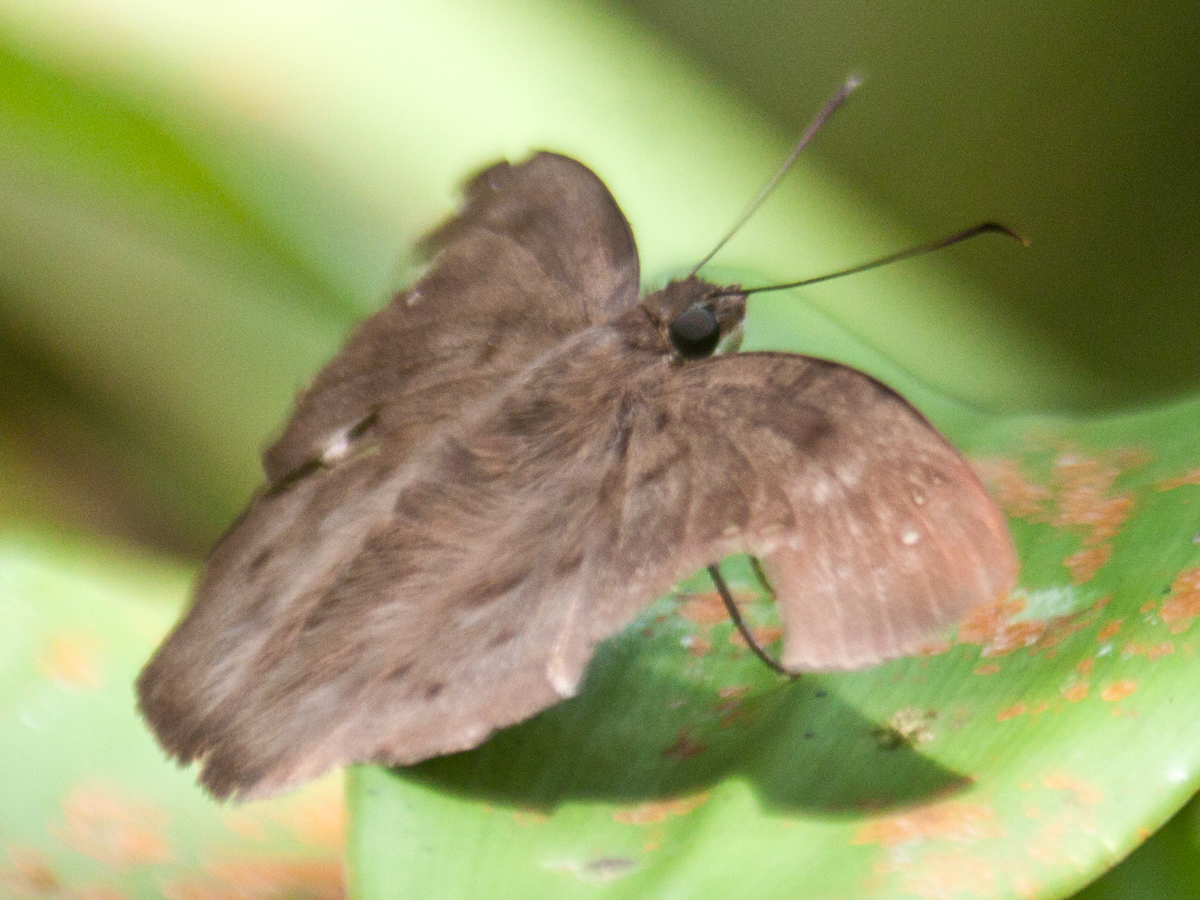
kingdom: Animalia
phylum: Arthropoda
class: Insecta
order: Lepidoptera
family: Hesperiidae
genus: Tagiades
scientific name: Tagiades japetus
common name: Pied flat
